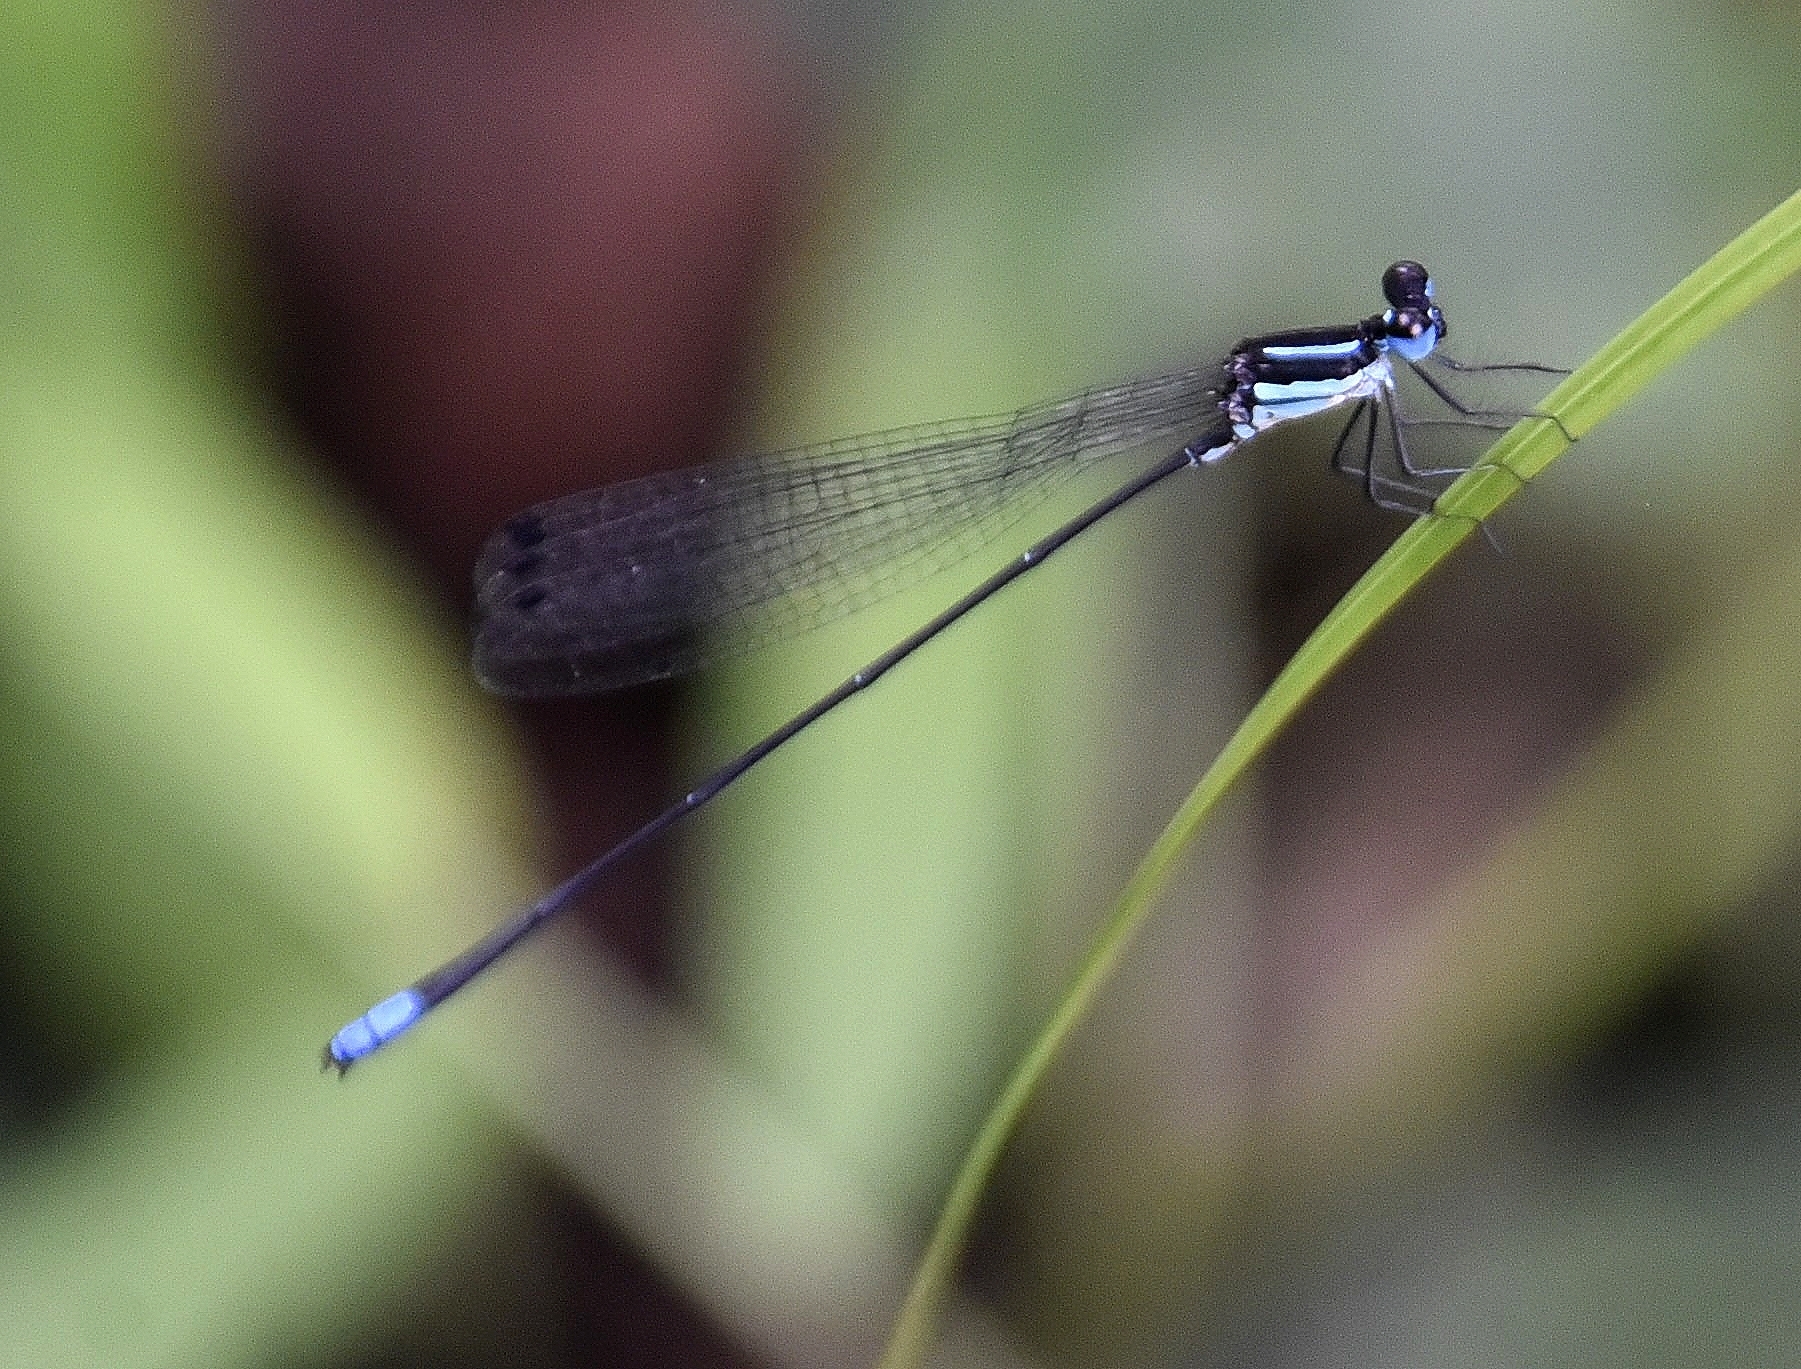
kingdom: Animalia
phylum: Arthropoda
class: Insecta
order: Odonata
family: Platycnemididae
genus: Melanoneura
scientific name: Melanoneura bilineata
